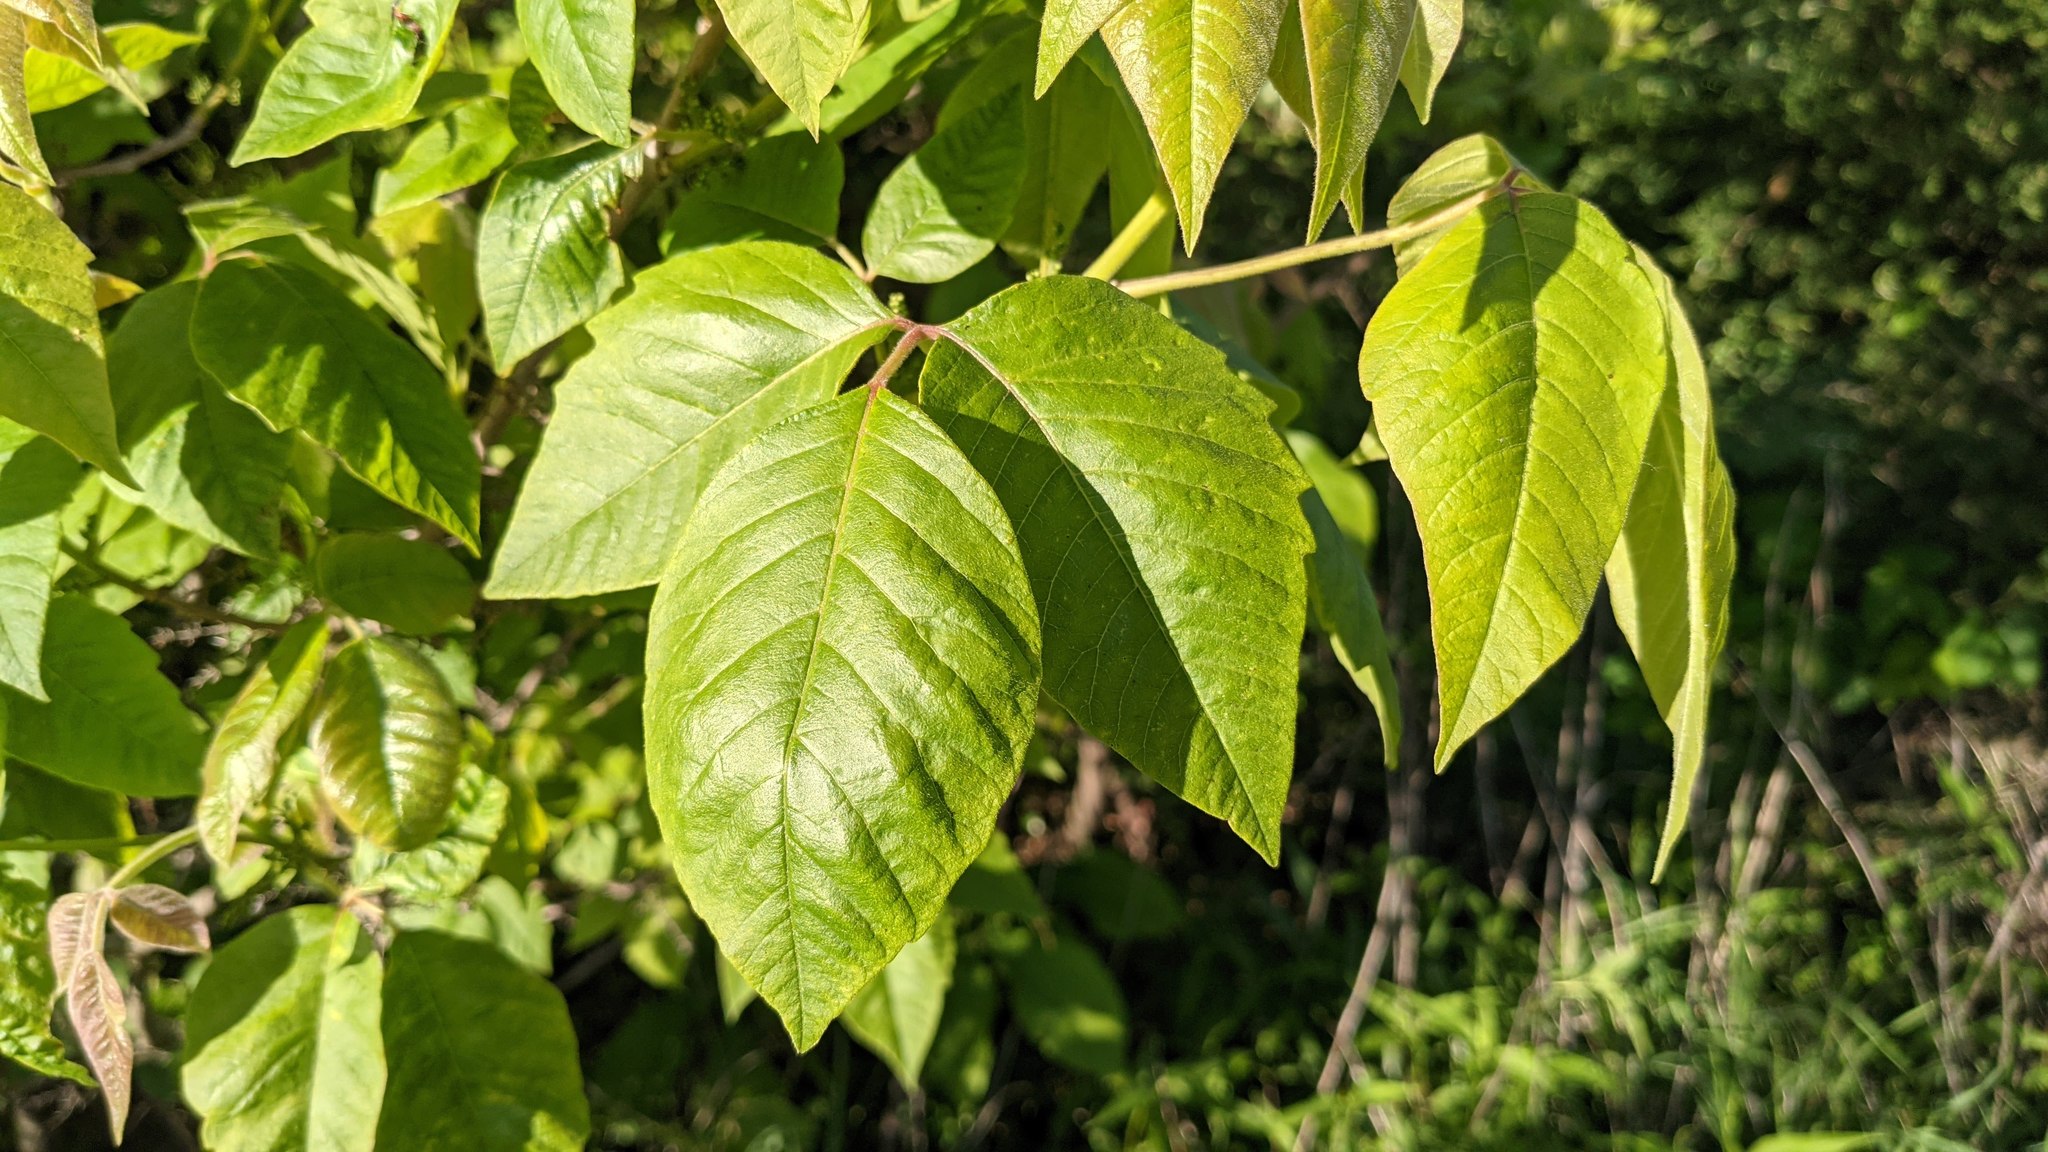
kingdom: Plantae
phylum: Tracheophyta
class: Magnoliopsida
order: Sapindales
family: Anacardiaceae
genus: Toxicodendron
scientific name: Toxicodendron radicans
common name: Poison ivy
